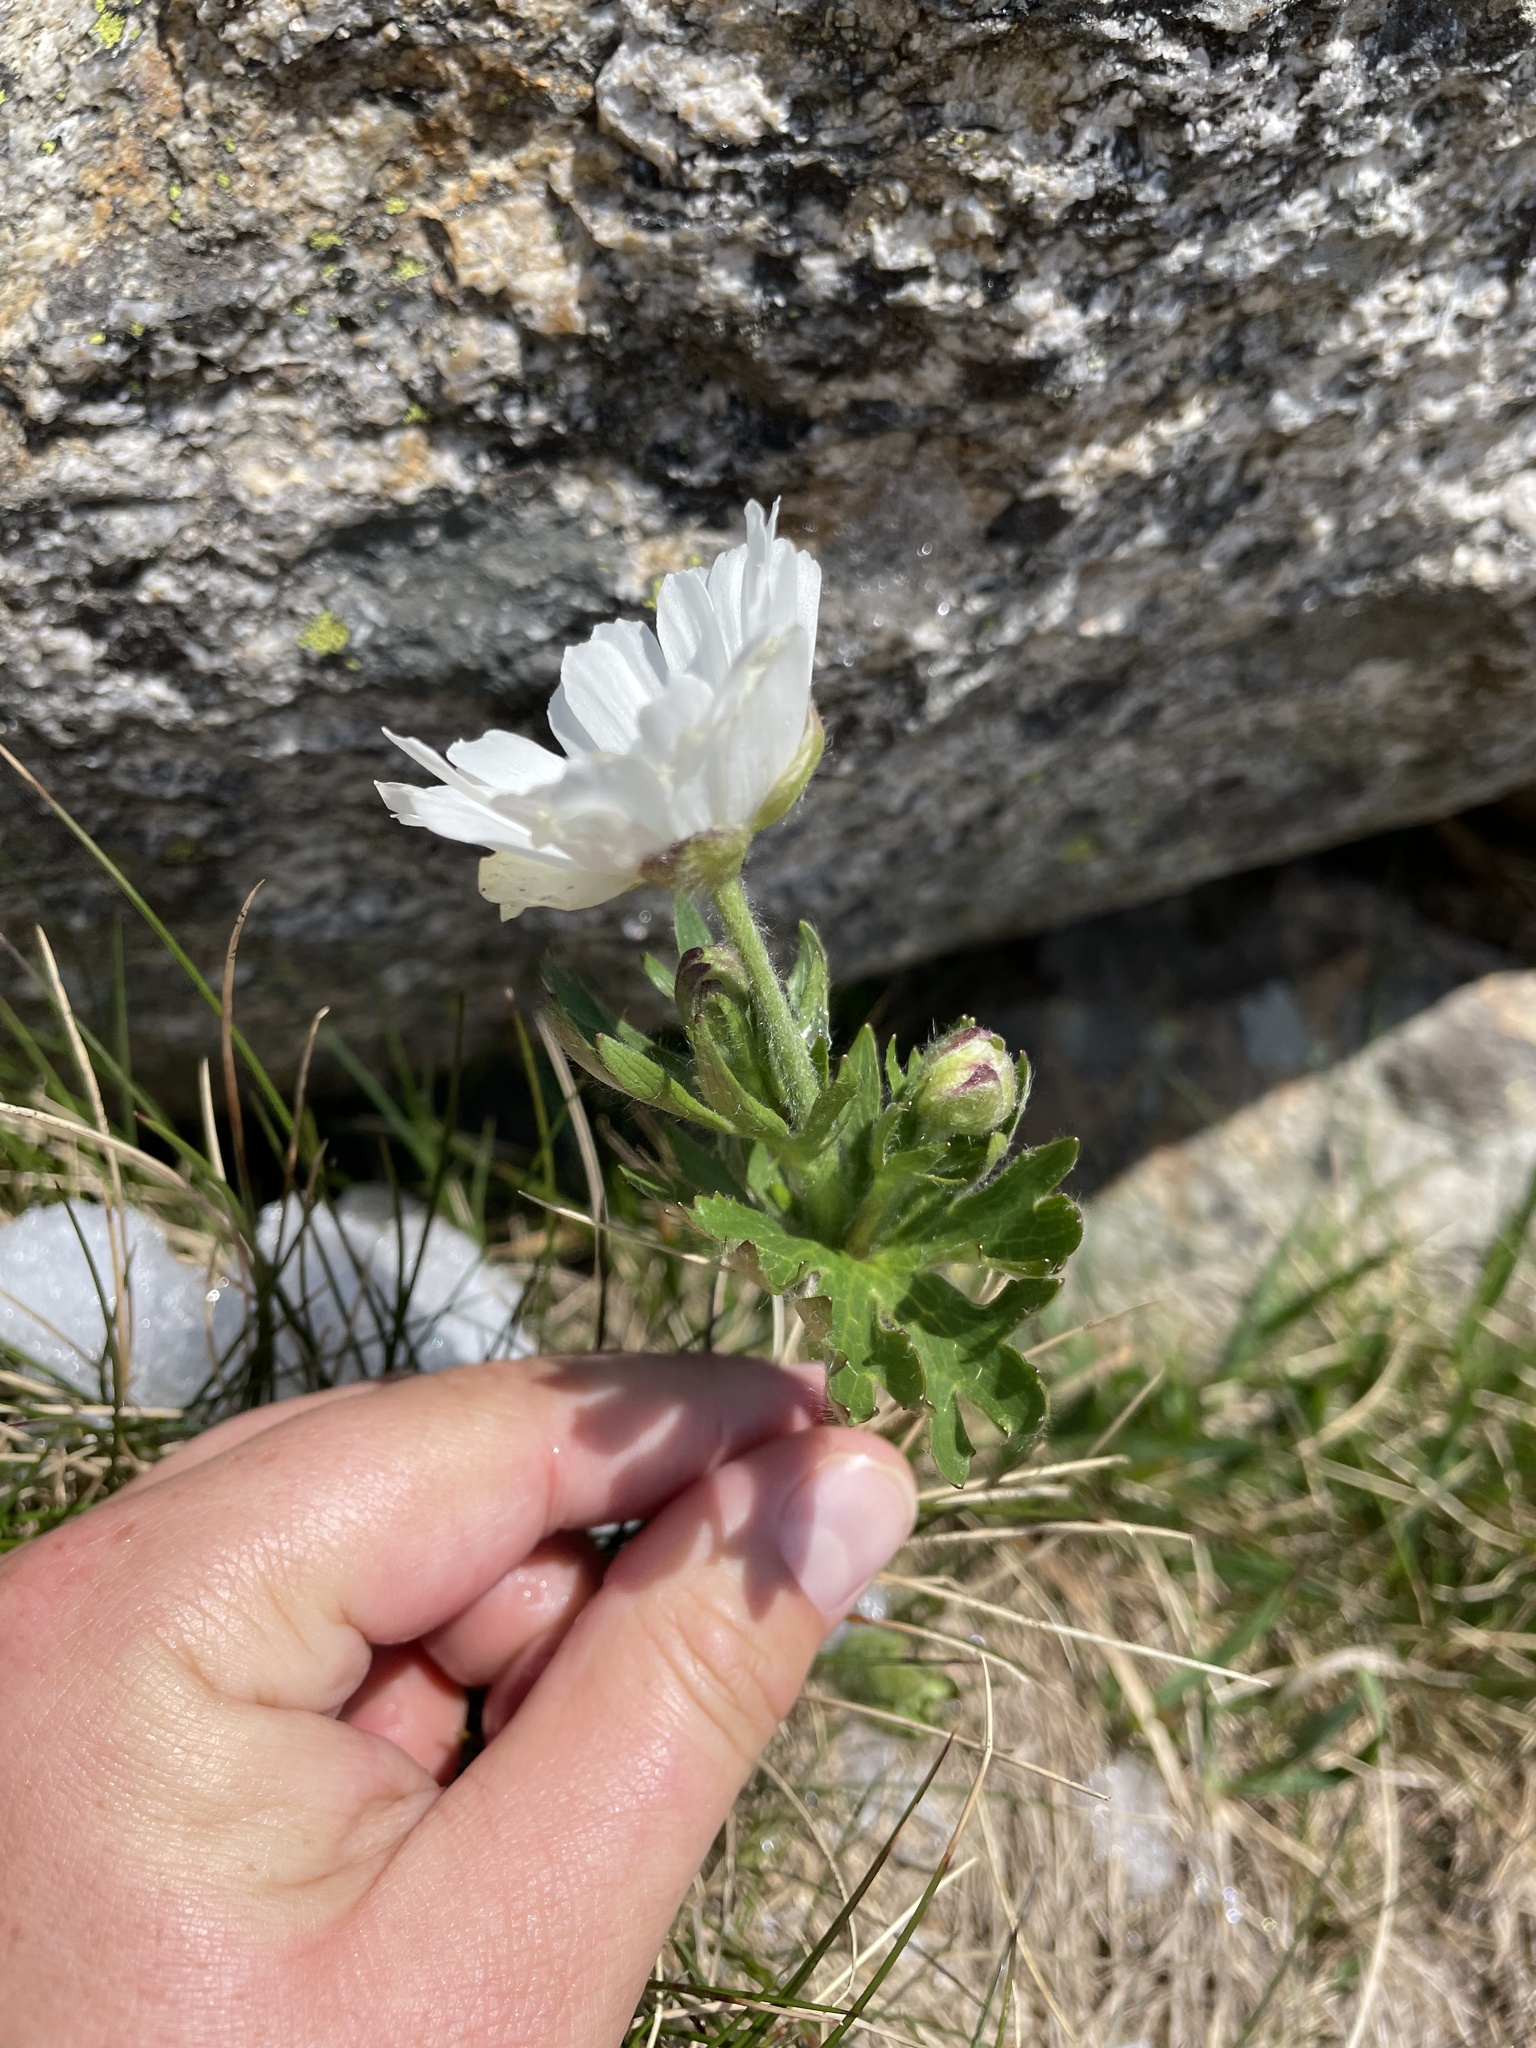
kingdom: Plantae
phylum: Tracheophyta
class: Magnoliopsida
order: Ranunculales
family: Ranunculaceae
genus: Ranunculus
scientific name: Ranunculus anemoneus
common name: Anemone buttercup
